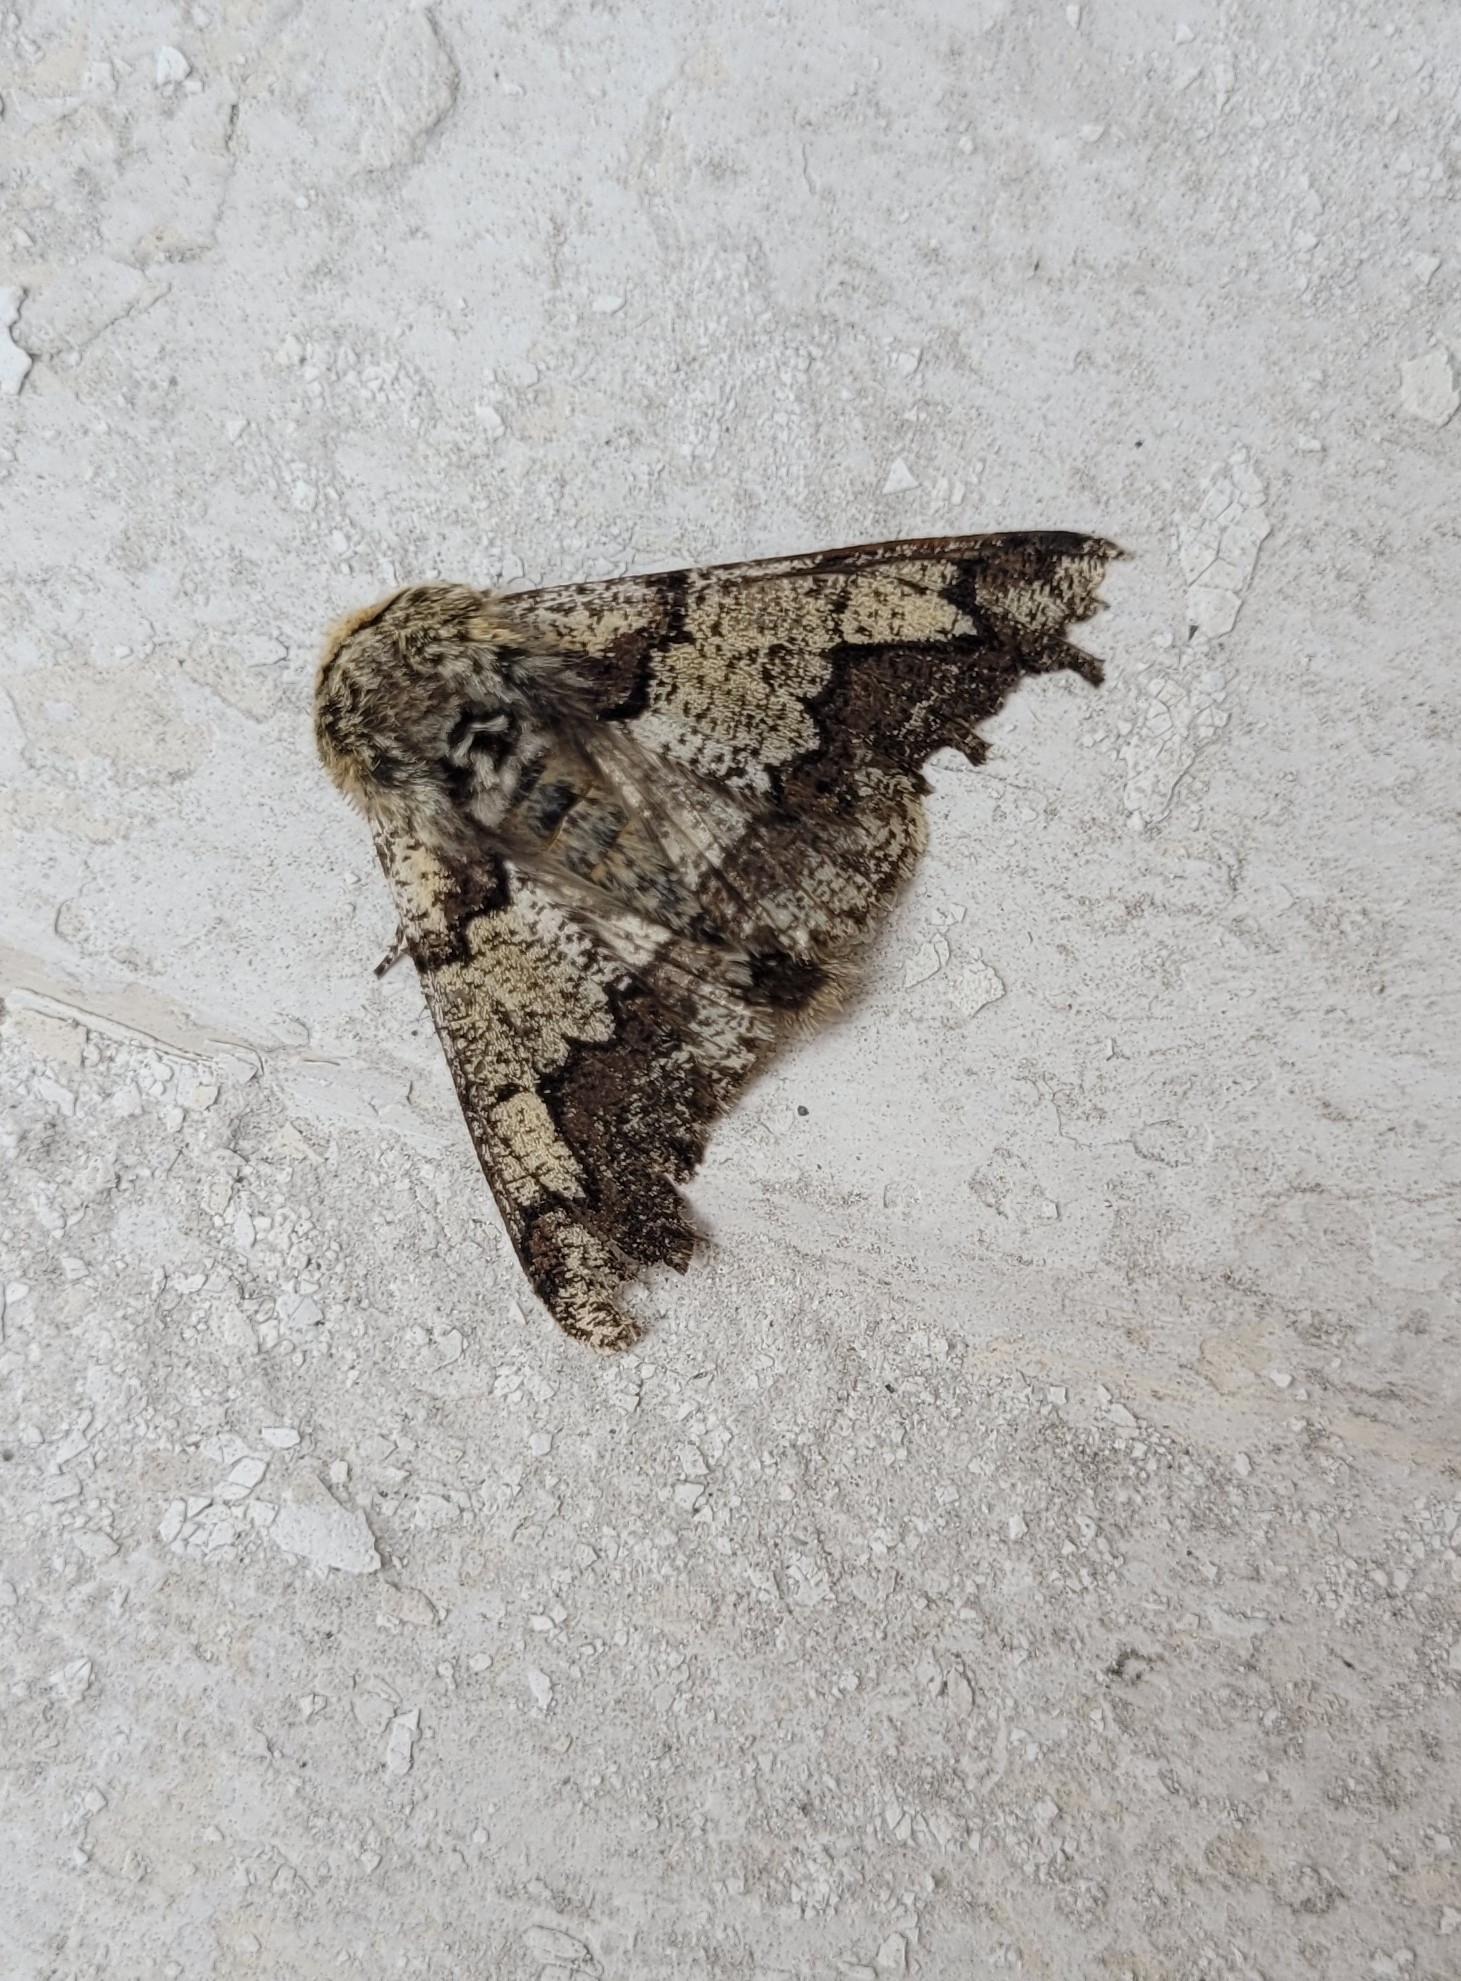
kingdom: Animalia
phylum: Arthropoda
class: Insecta
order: Lepidoptera
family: Geometridae
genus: Biston
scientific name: Biston strataria
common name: Oak beauty
